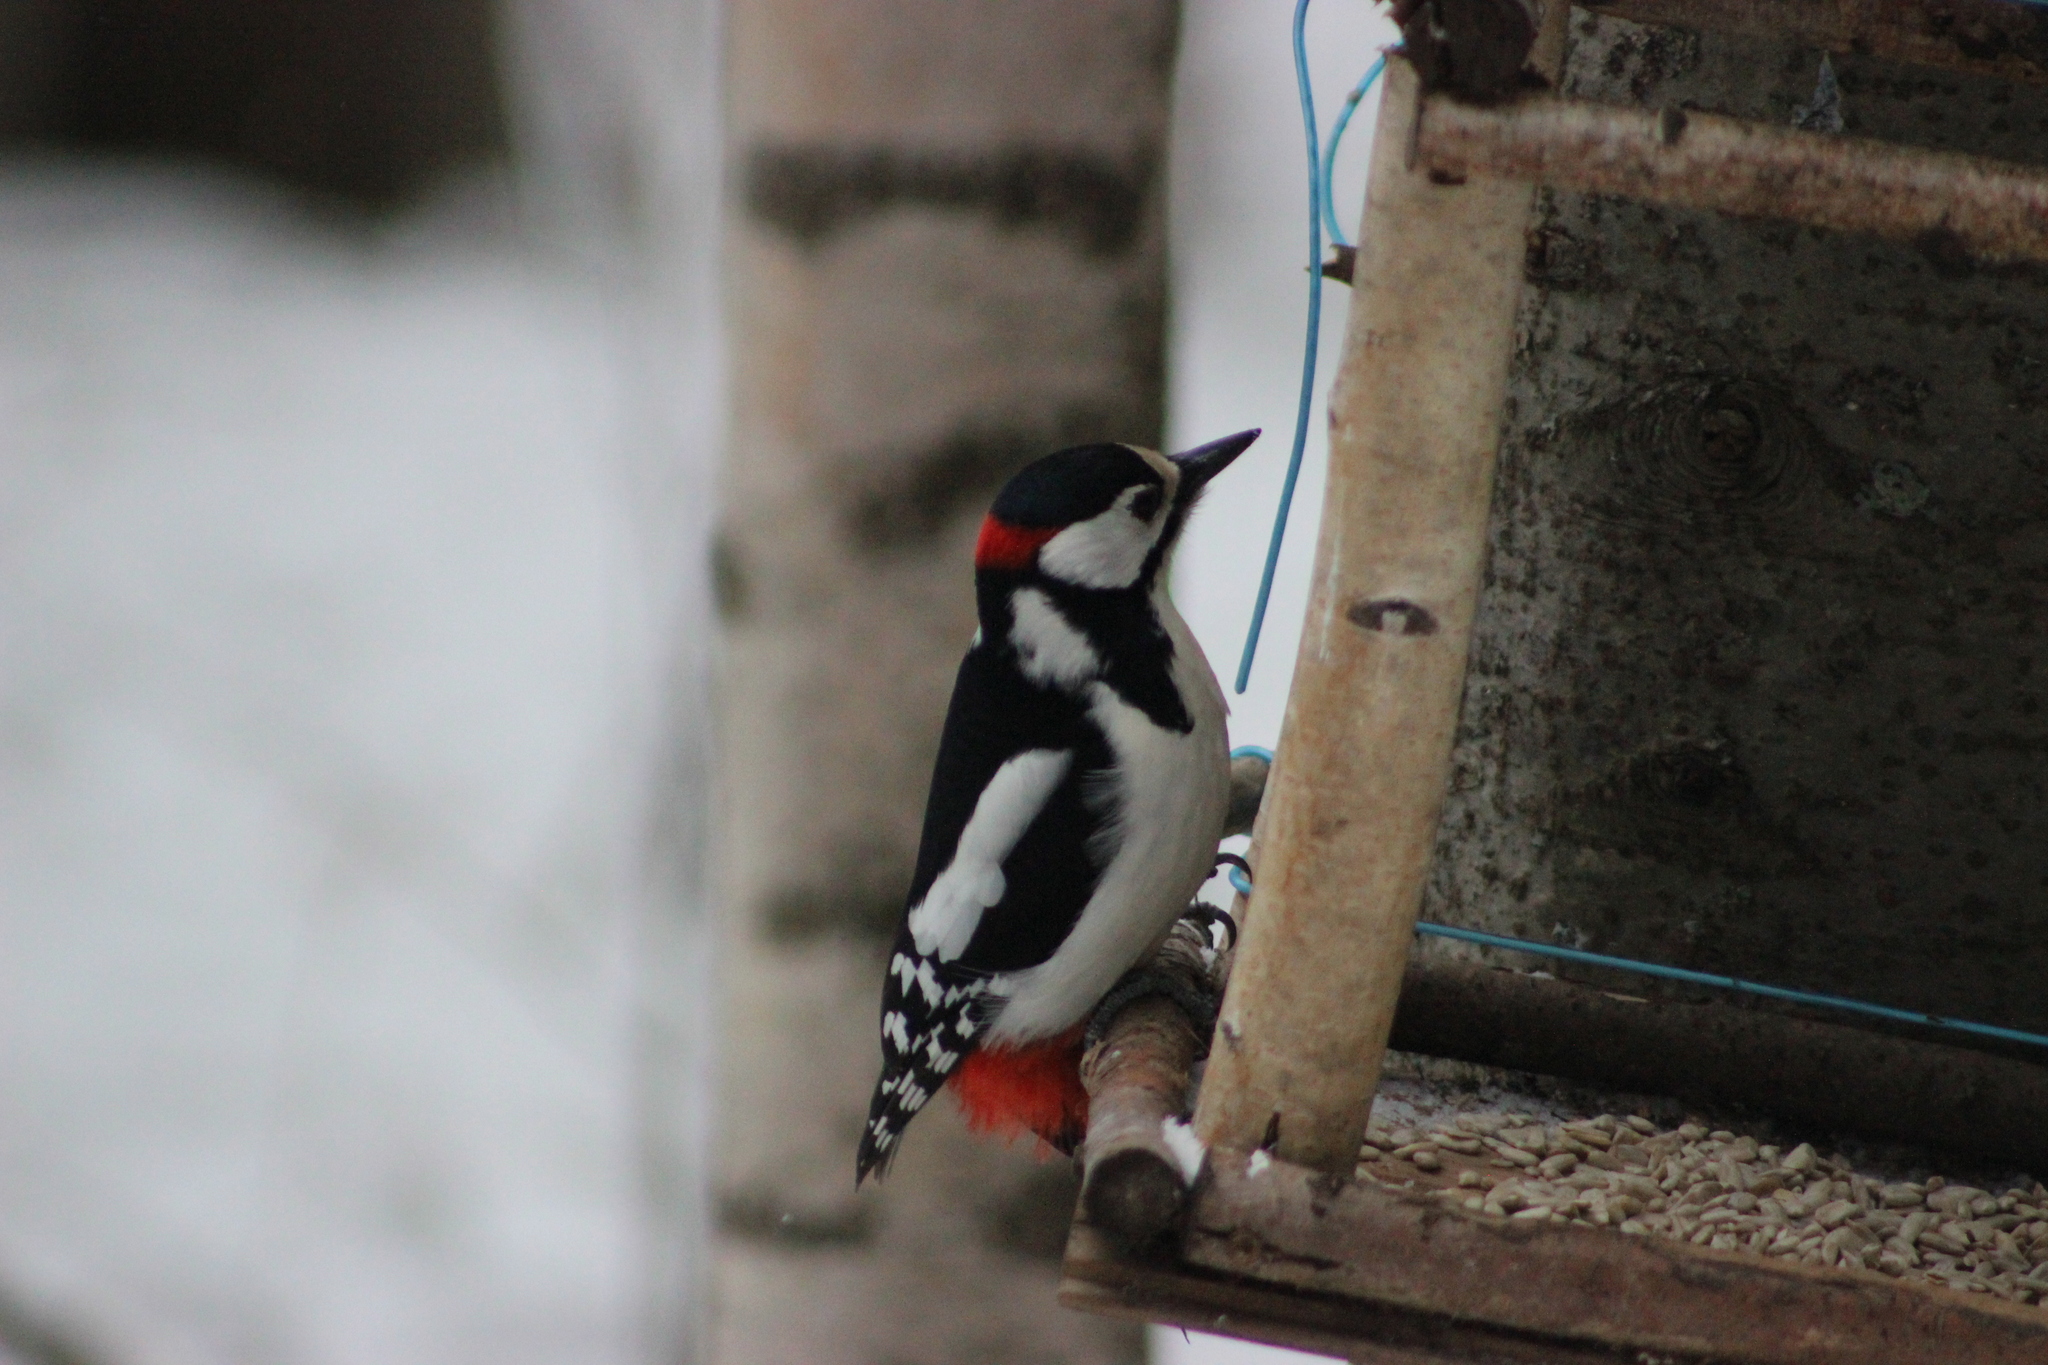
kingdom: Animalia
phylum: Chordata
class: Aves
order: Piciformes
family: Picidae
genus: Dendrocopos
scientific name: Dendrocopos major
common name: Great spotted woodpecker
